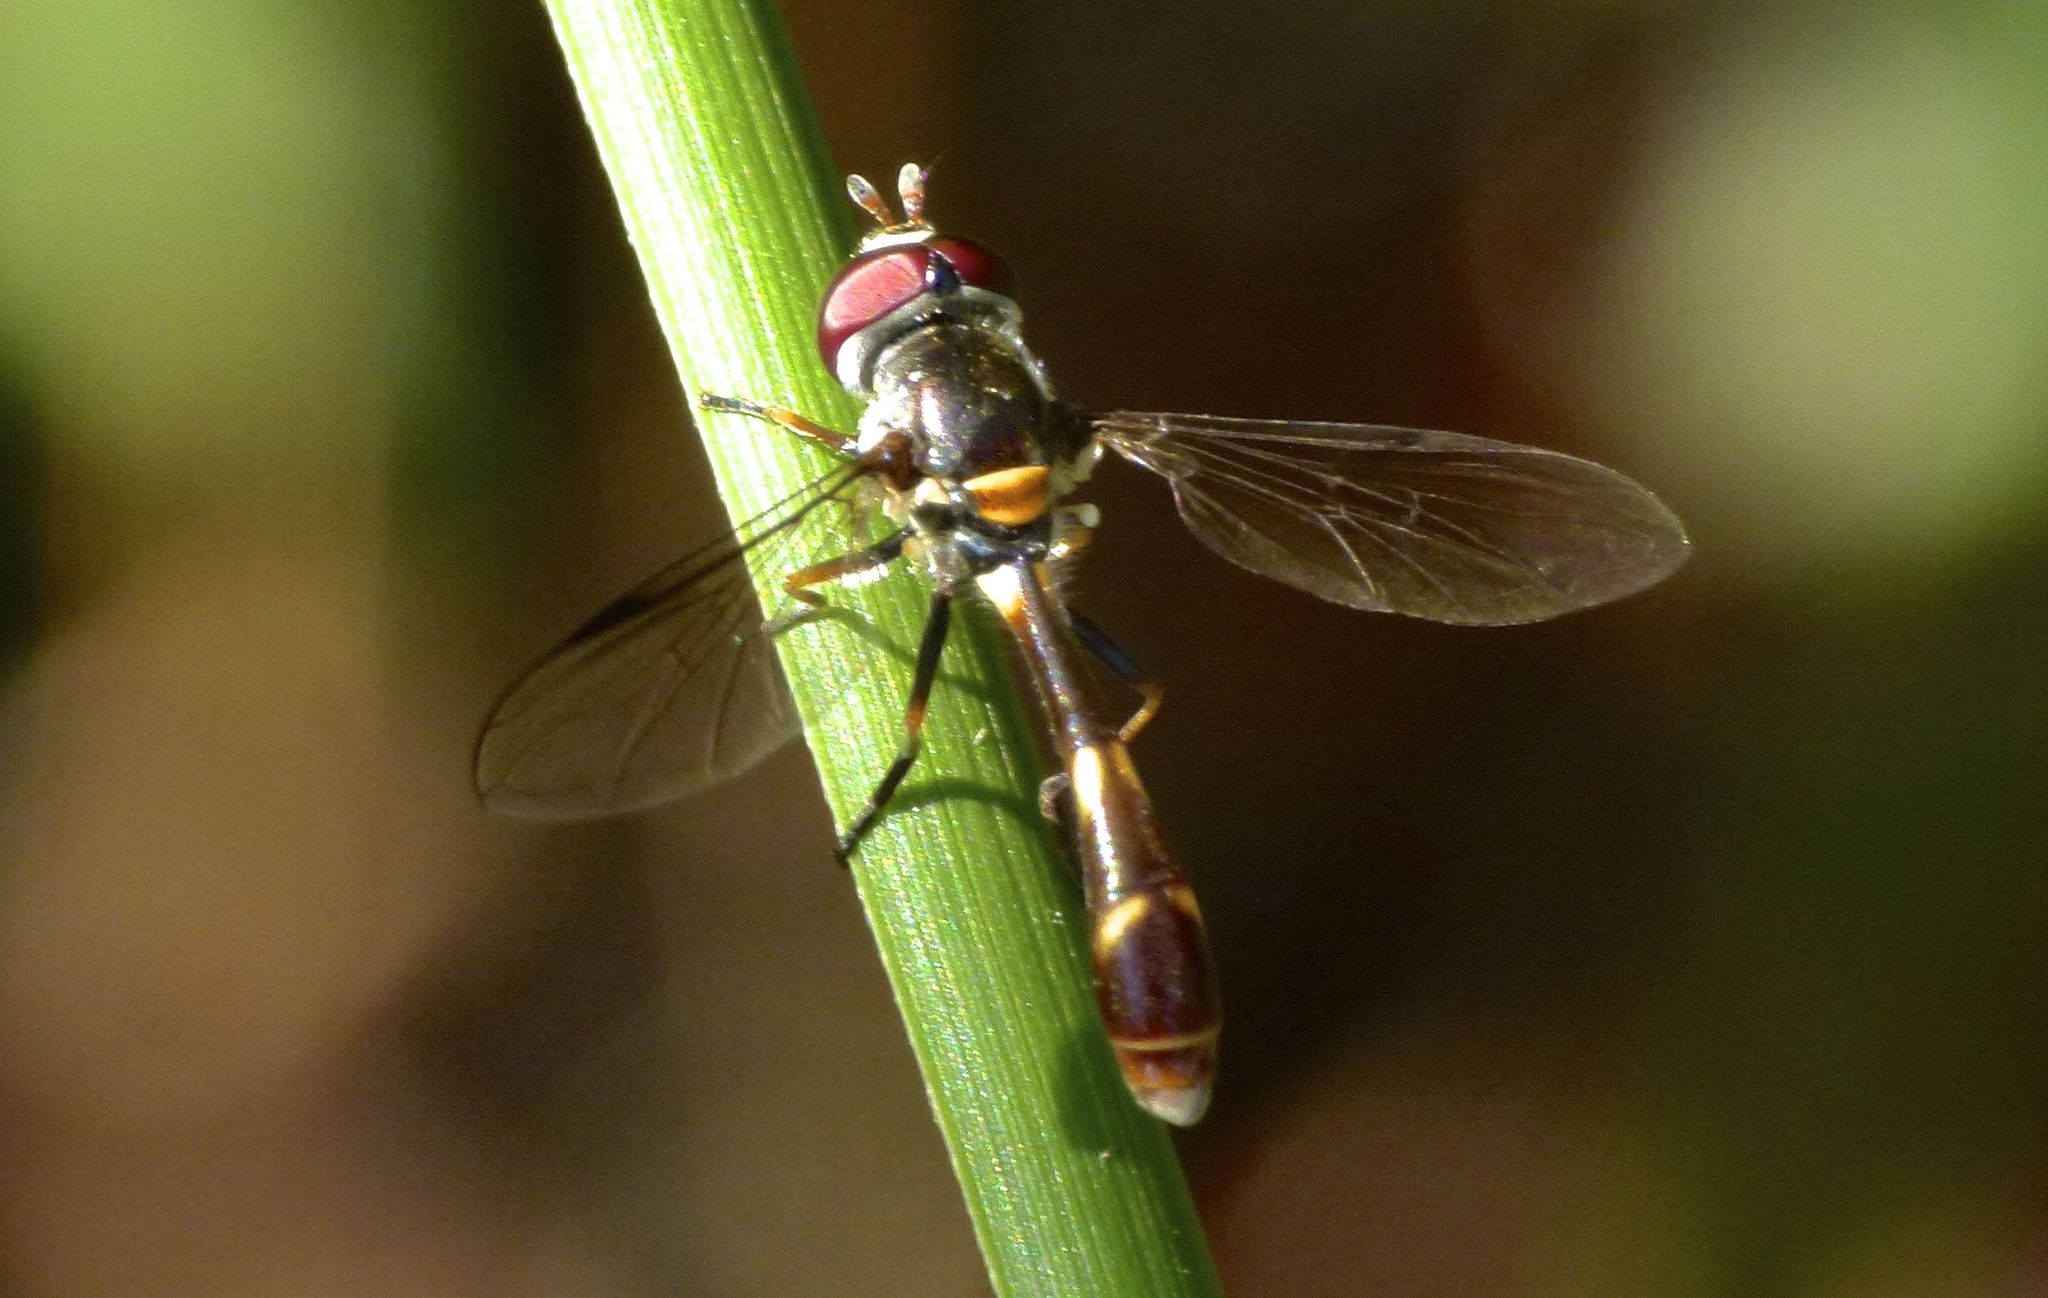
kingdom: Animalia
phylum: Arthropoda
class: Insecta
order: Diptera
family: Syrphidae
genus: Dioprosopa
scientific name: Dioprosopa clavatus
